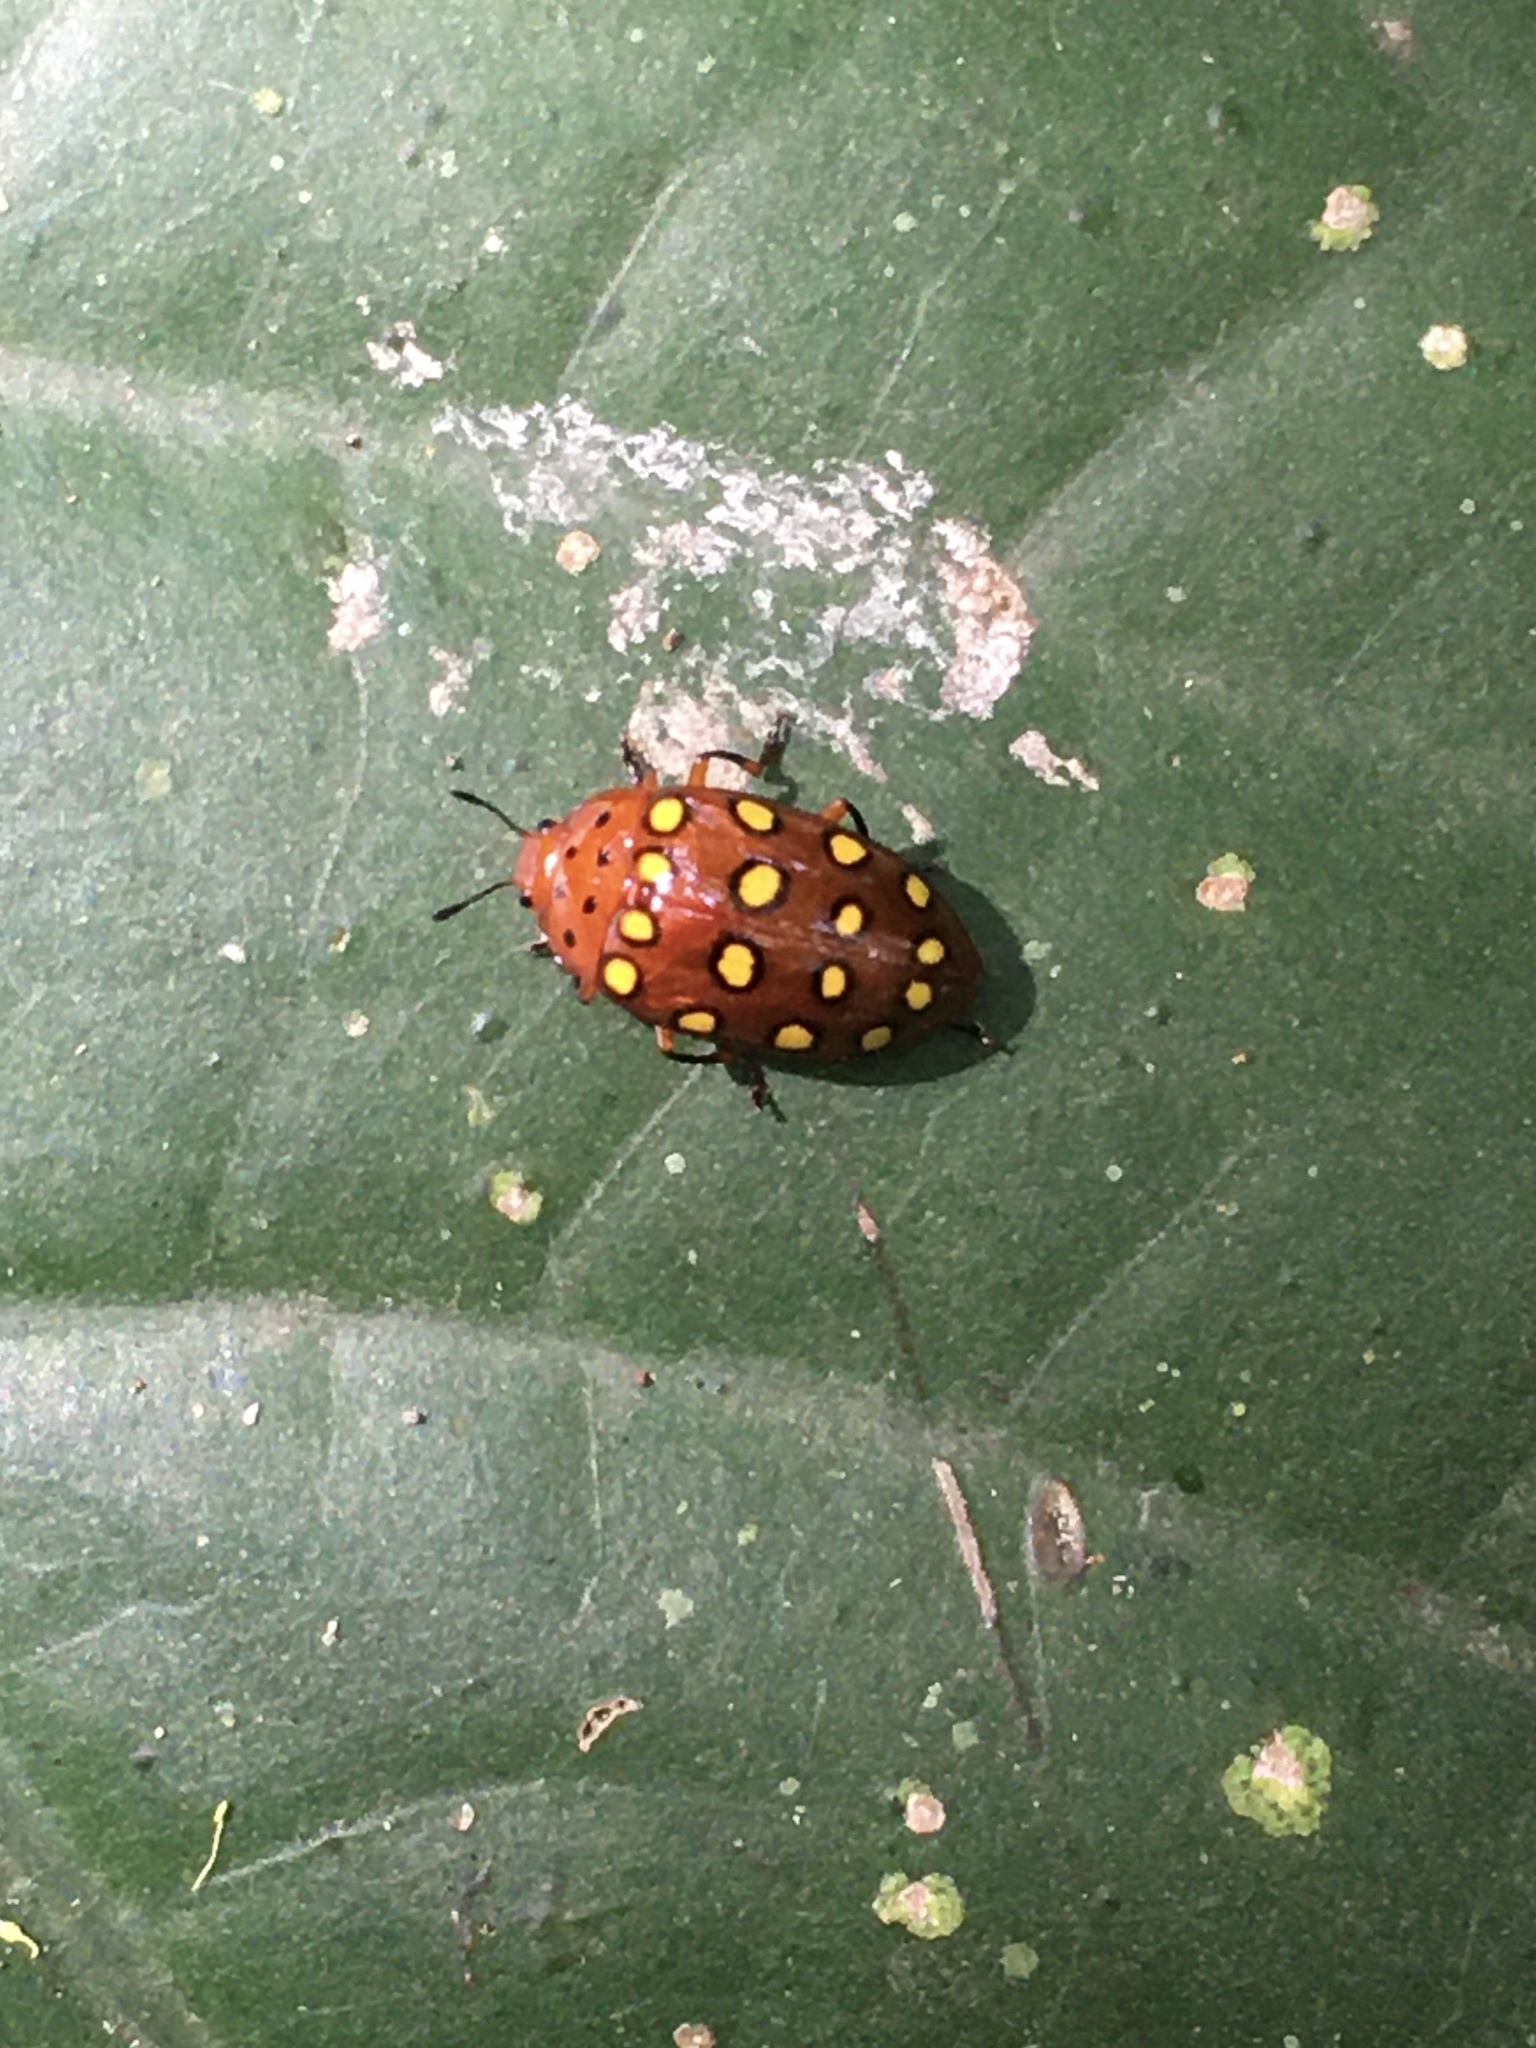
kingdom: Animalia
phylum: Arthropoda
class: Insecta
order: Coleoptera
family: Erotylidae
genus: Iphiclus
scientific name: Iphiclus
